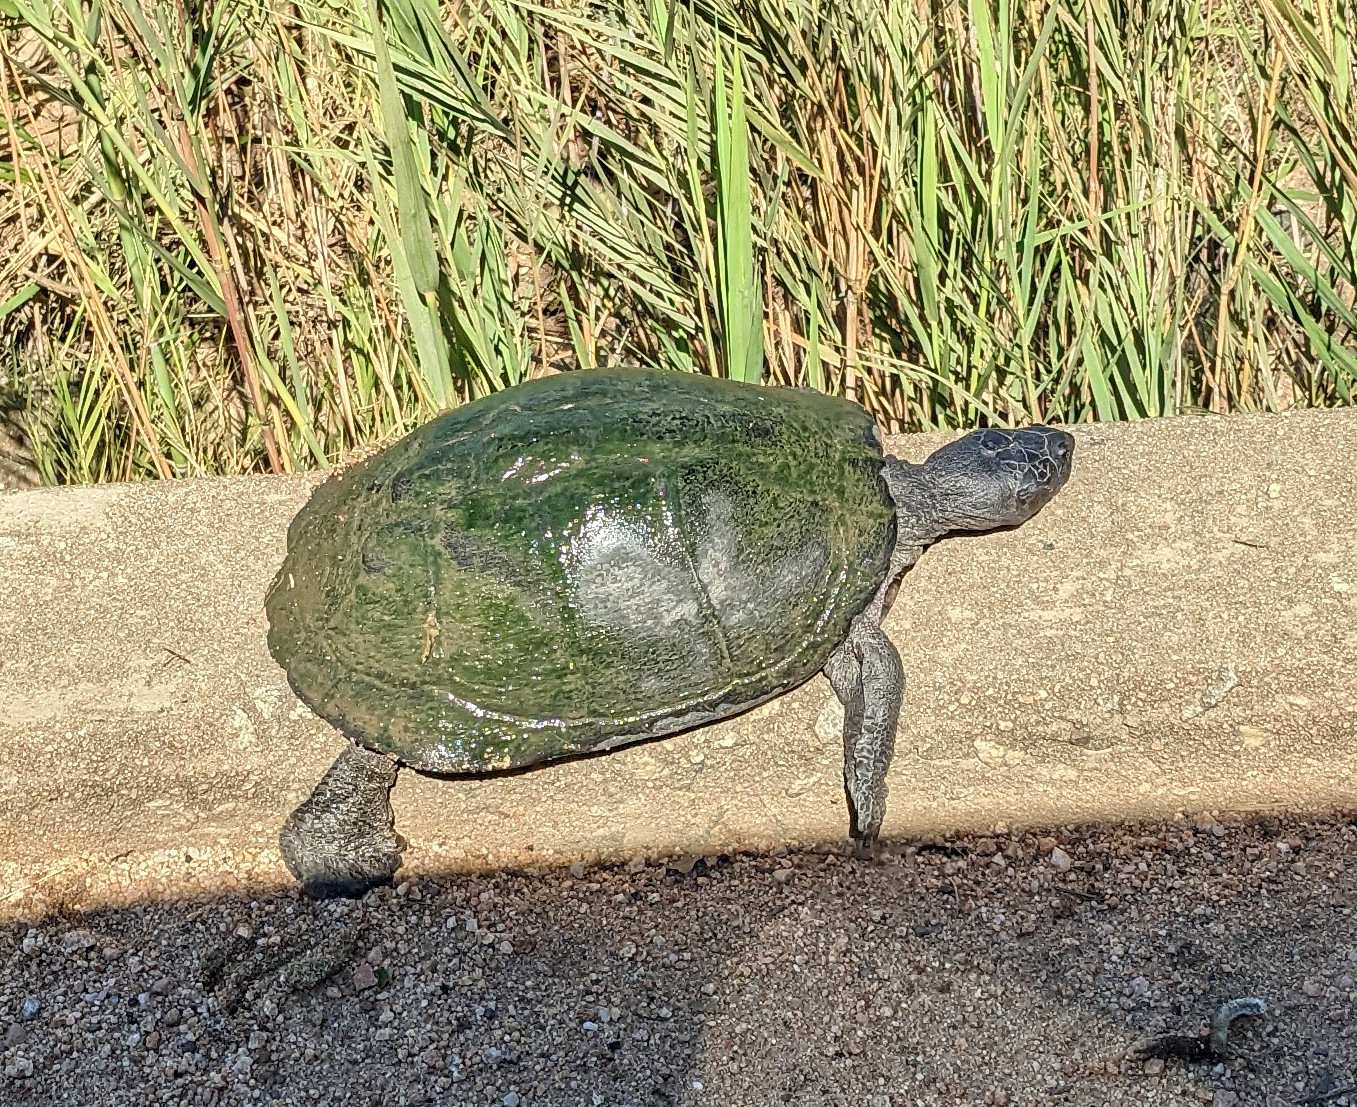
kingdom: Animalia
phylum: Chordata
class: Testudines
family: Pelomedusidae
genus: Pelusios
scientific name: Pelusios sinuatus
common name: Serrated hinged terrapin
